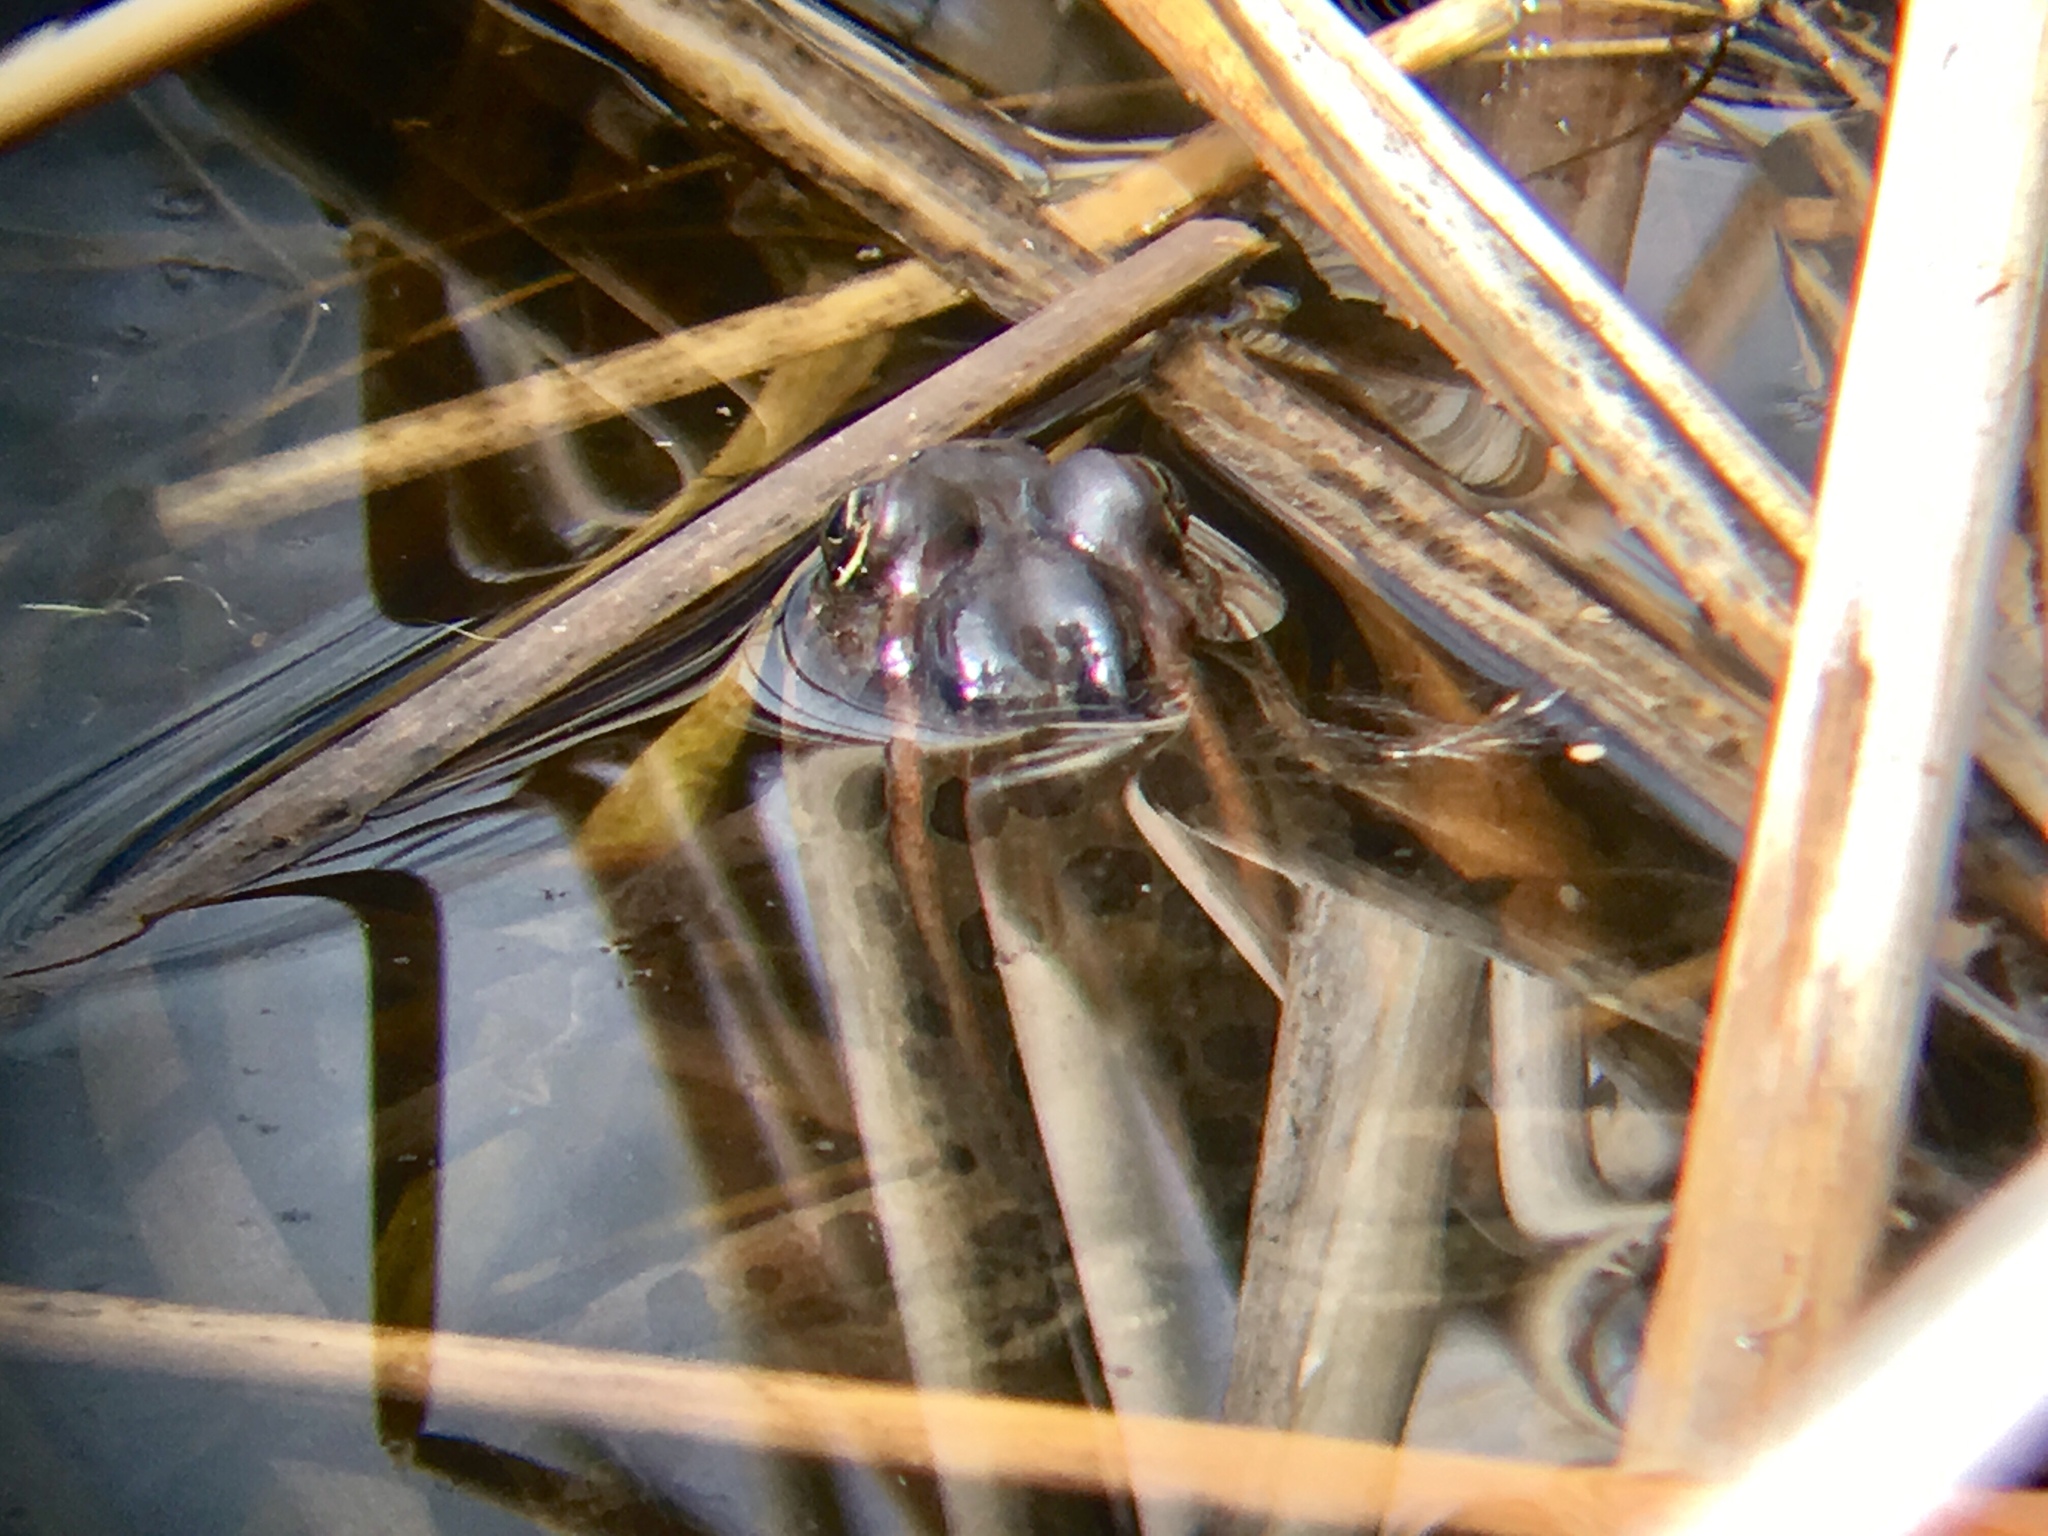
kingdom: Animalia
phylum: Chordata
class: Amphibia
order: Anura
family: Ranidae
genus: Lithobates
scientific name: Lithobates pipiens
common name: Northern leopard frog
